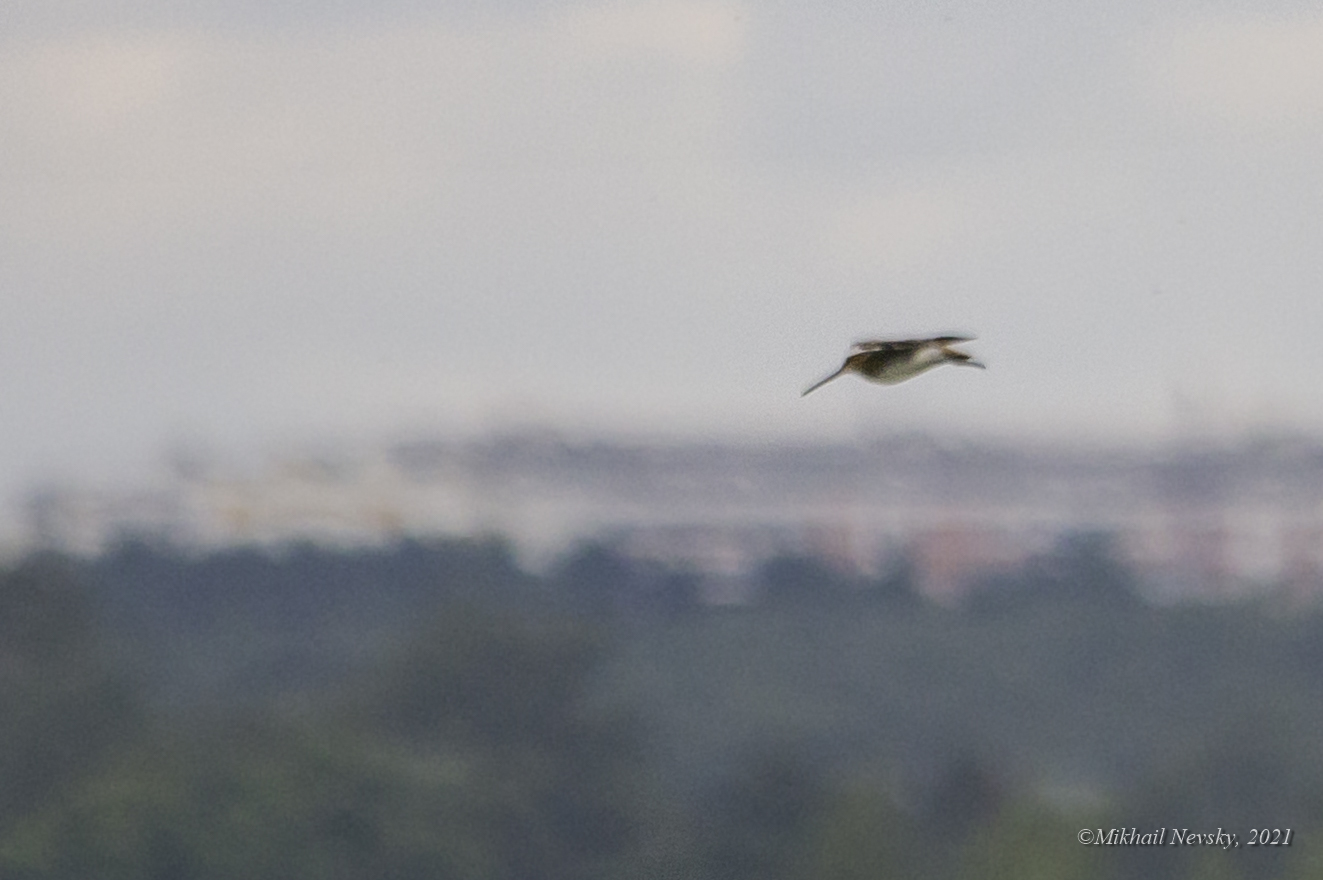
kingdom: Animalia
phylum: Chordata
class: Aves
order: Charadriiformes
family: Scolopacidae
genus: Gallinago
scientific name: Gallinago gallinago
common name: Common snipe
